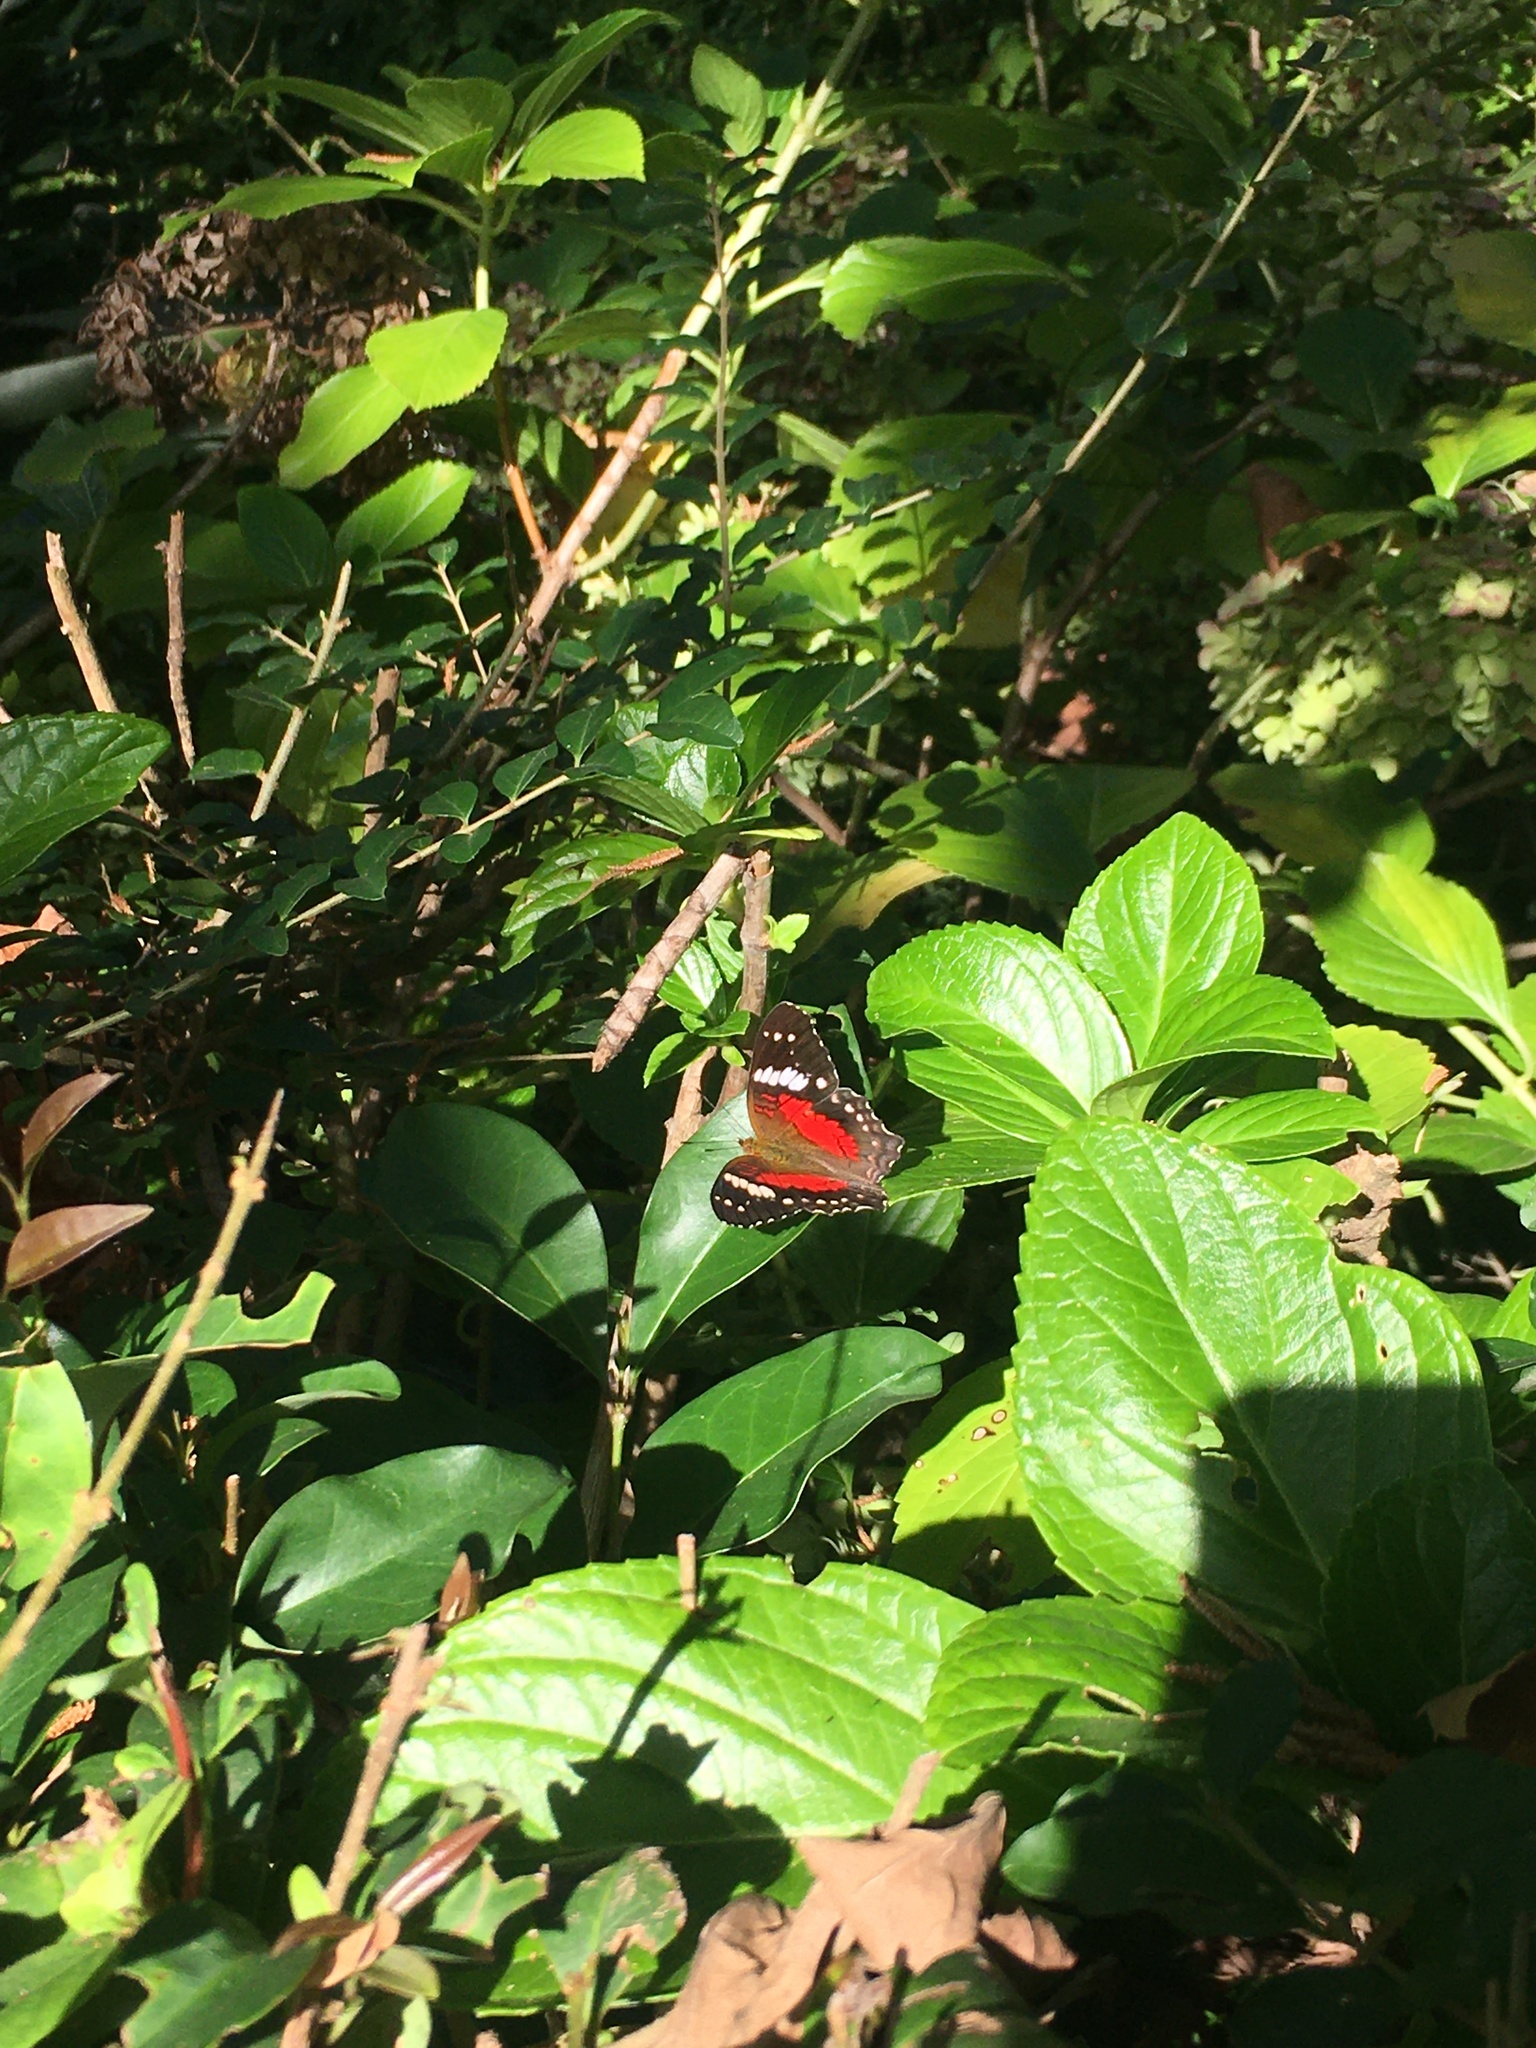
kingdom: Animalia
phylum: Arthropoda
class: Insecta
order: Lepidoptera
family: Nymphalidae
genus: Anartia
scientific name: Anartia amathea
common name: Red peacock
